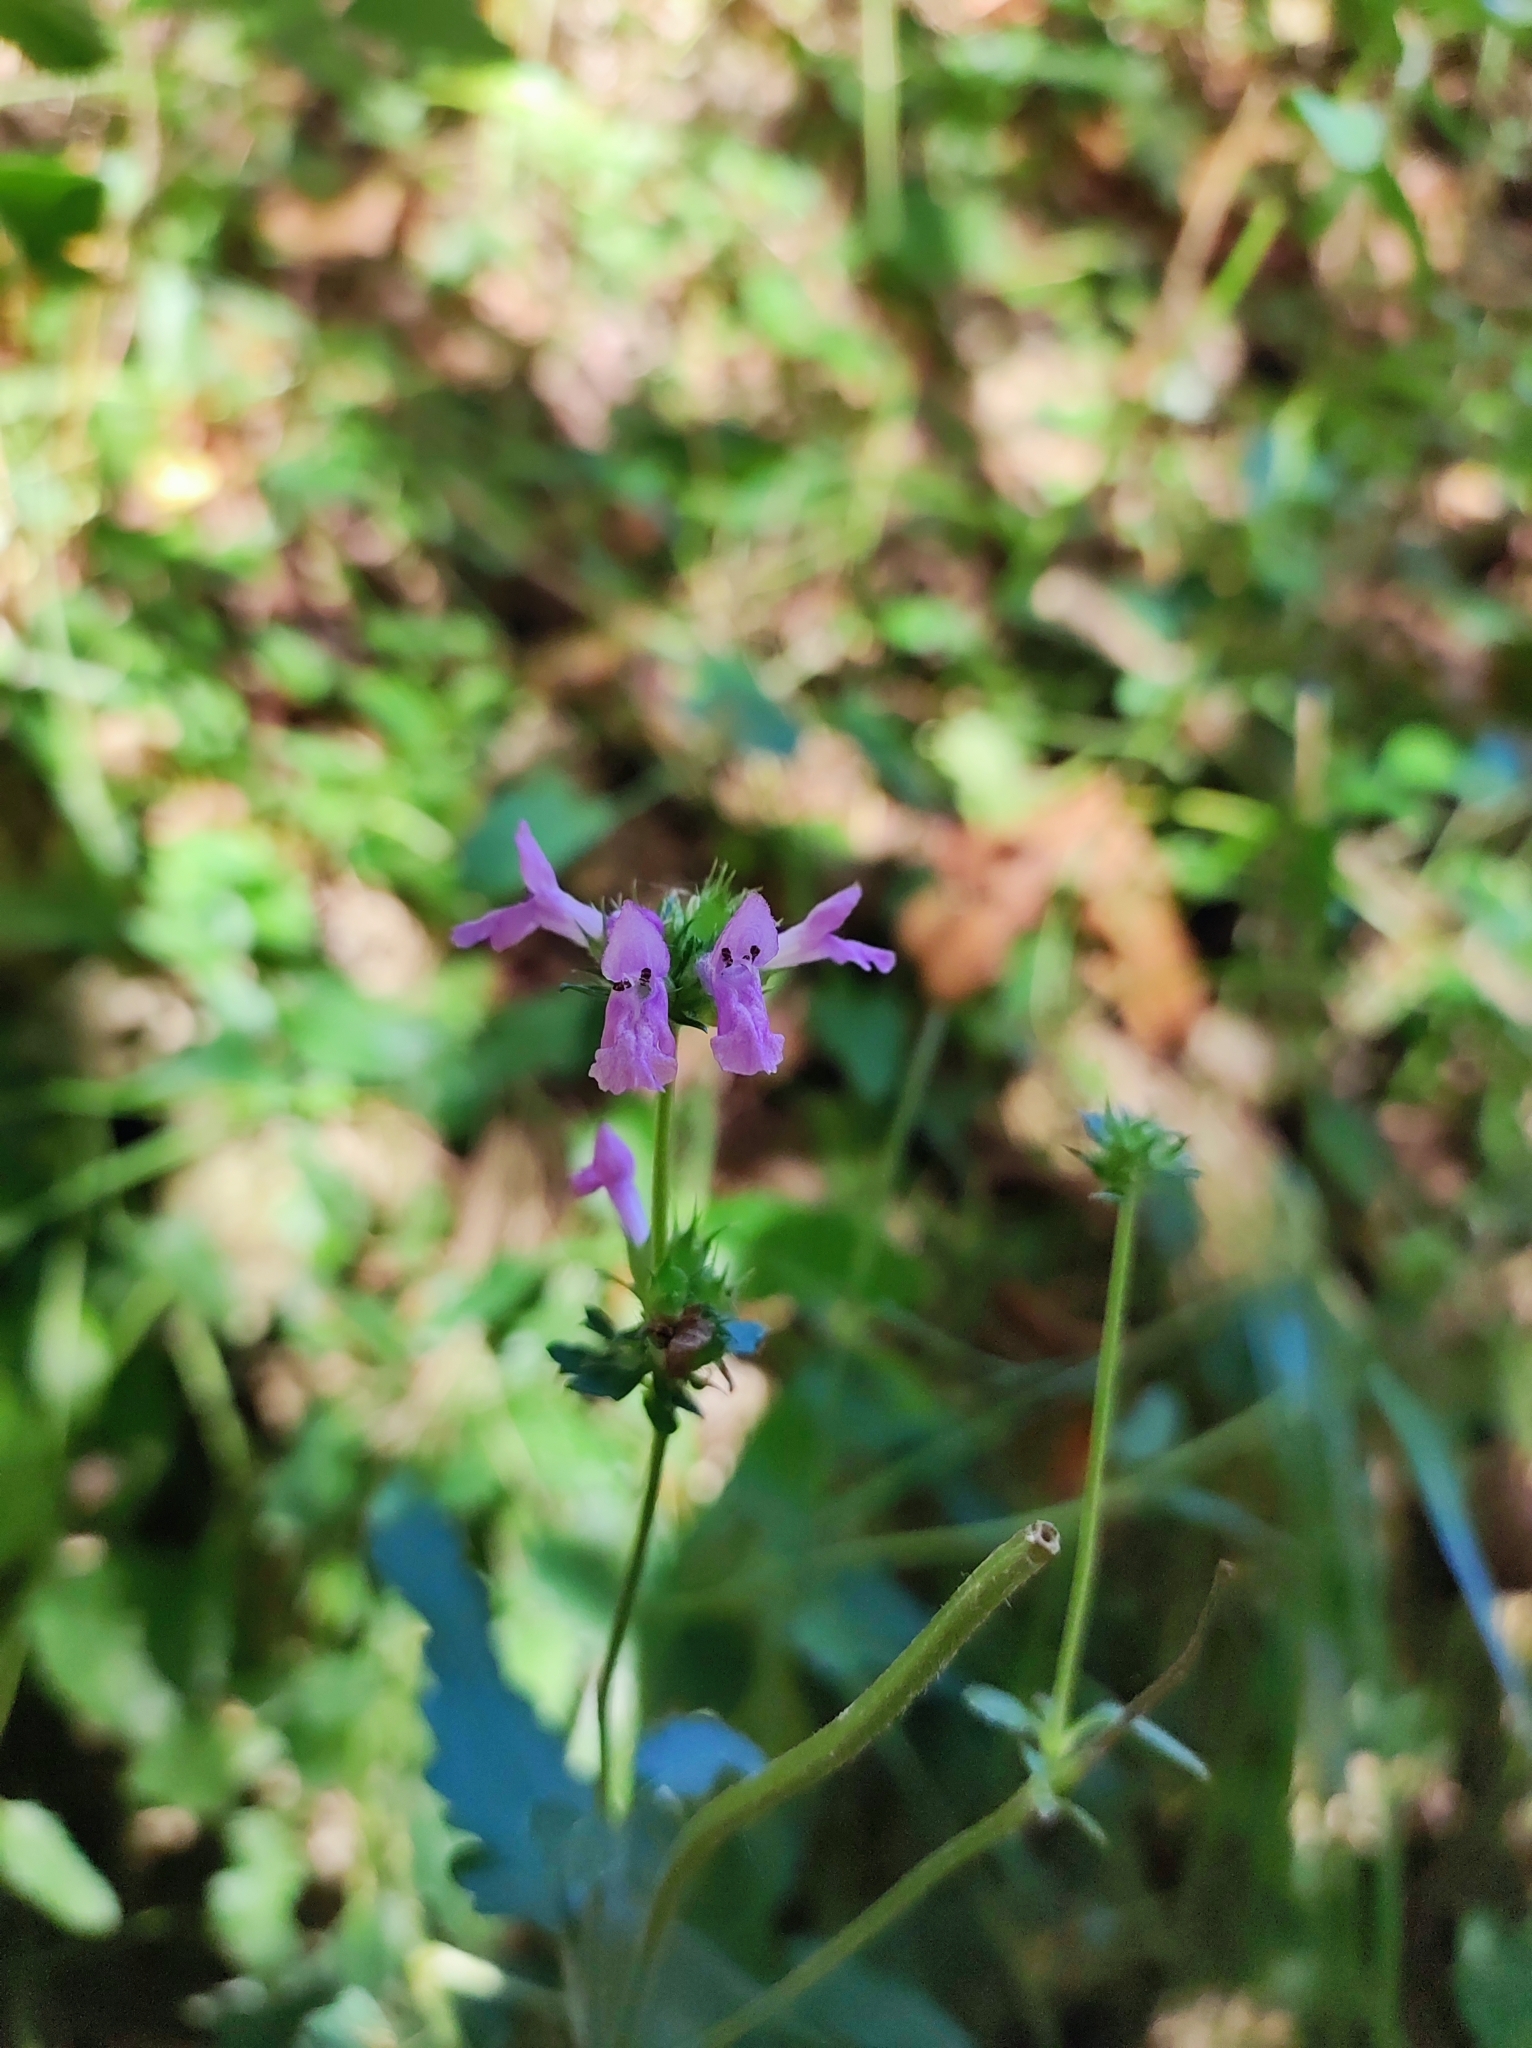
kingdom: Plantae
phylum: Tracheophyta
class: Magnoliopsida
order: Lamiales
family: Lamiaceae
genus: Betonica
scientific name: Betonica officinalis
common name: Bishop's-wort
